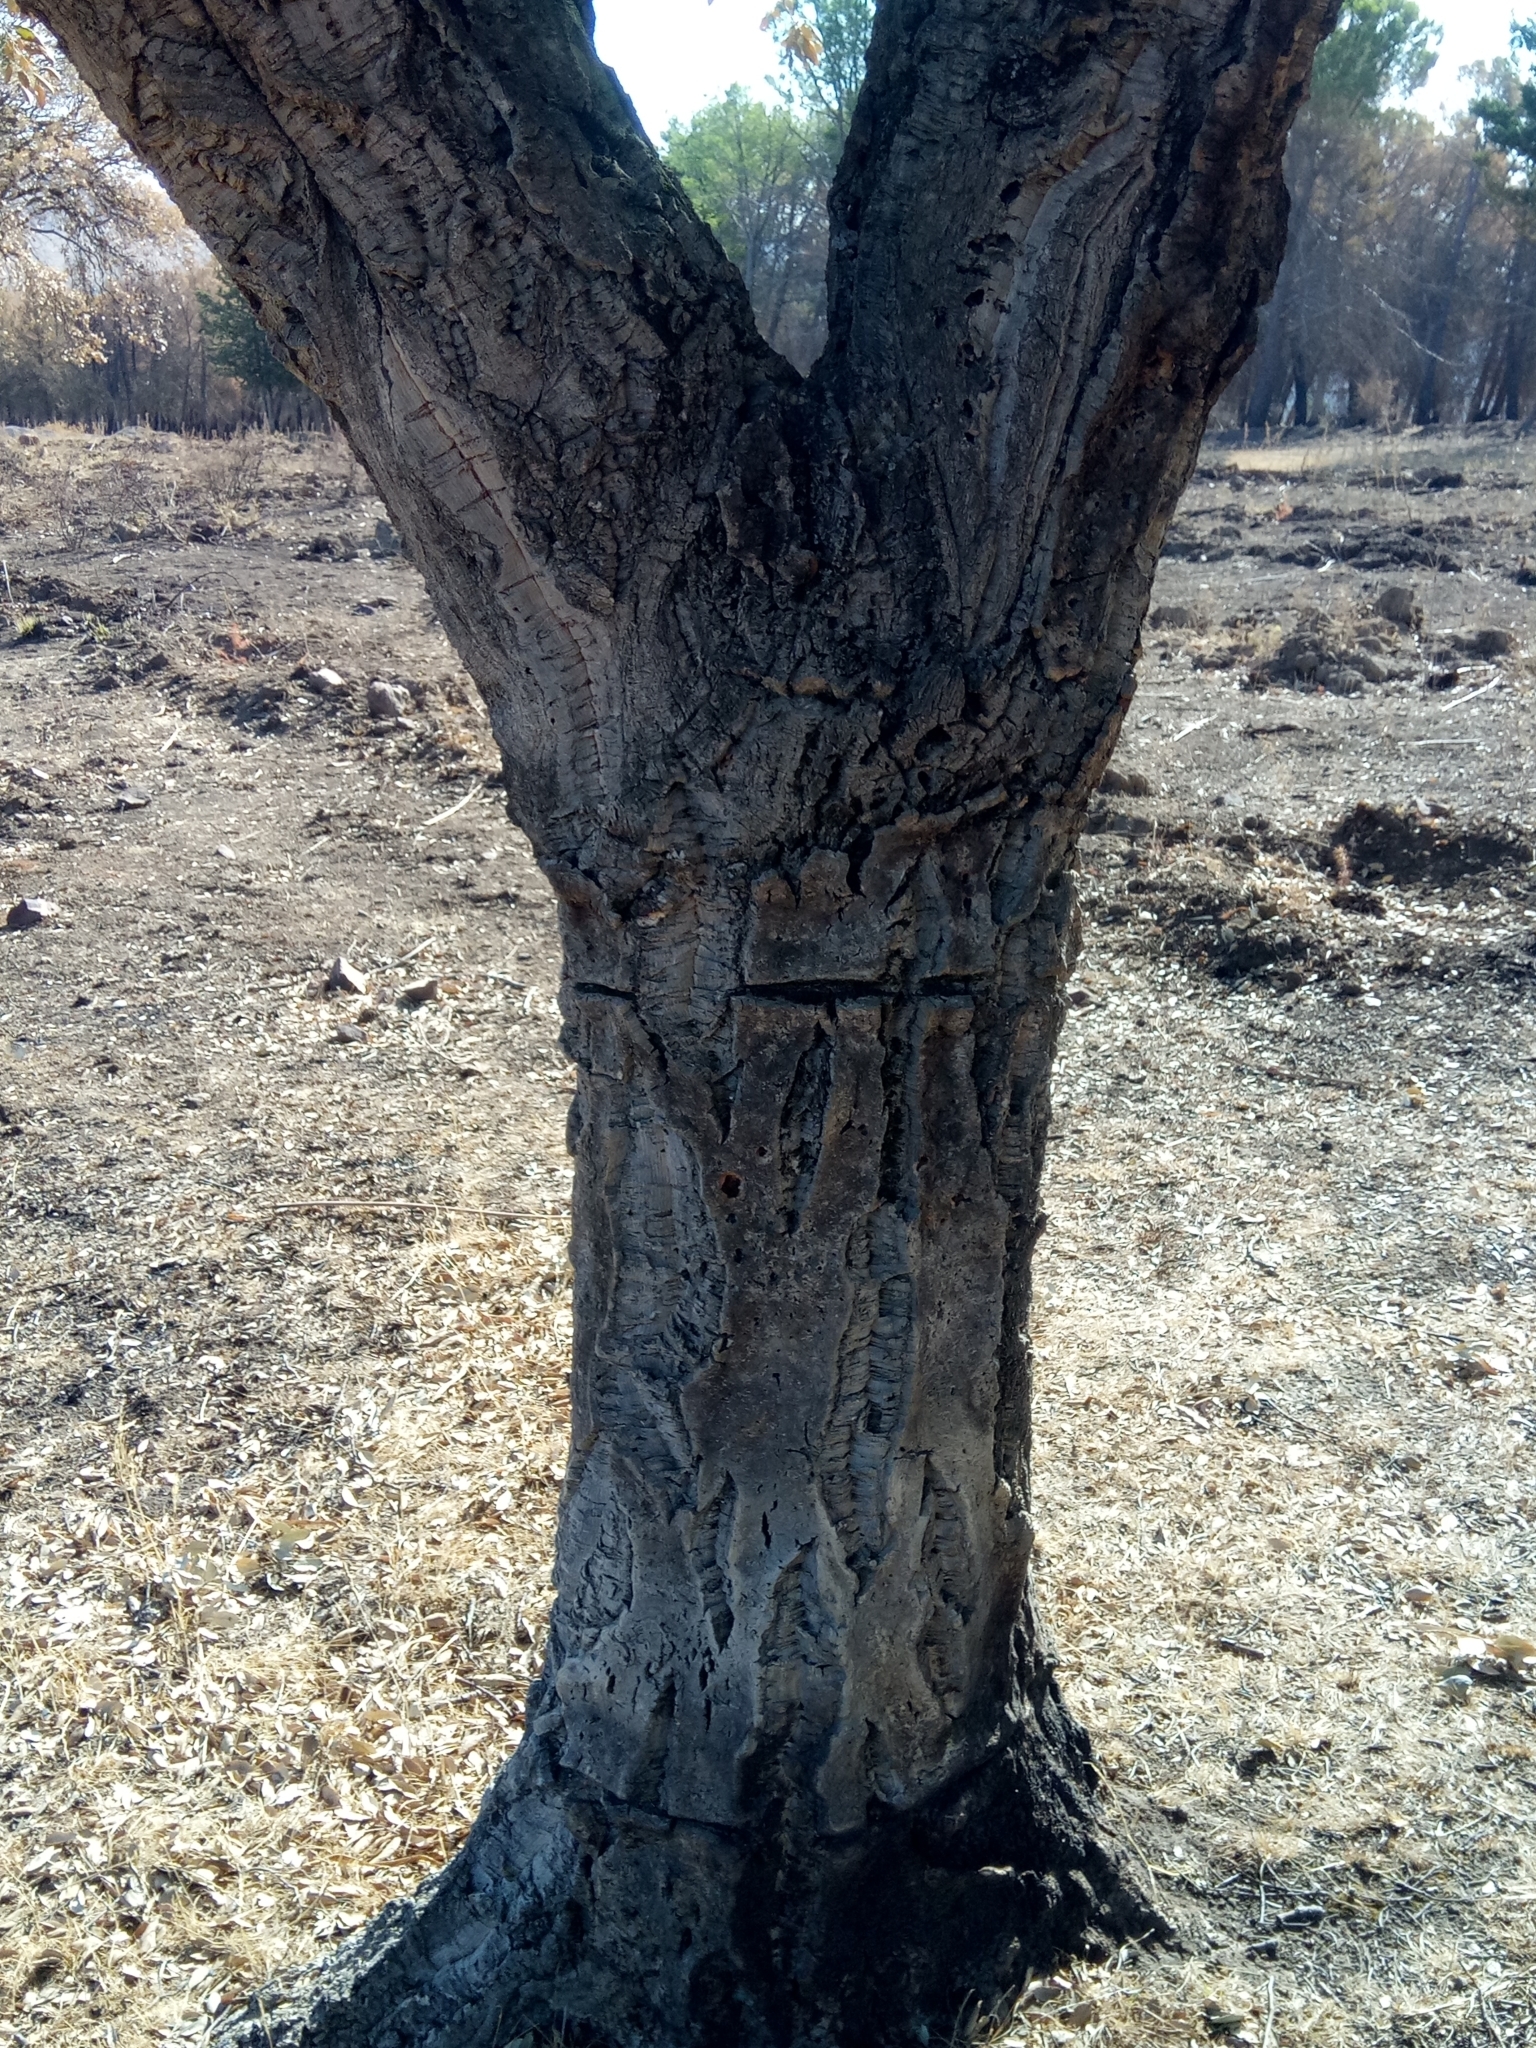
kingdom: Plantae
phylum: Tracheophyta
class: Magnoliopsida
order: Fagales
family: Fagaceae
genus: Quercus
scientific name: Quercus suber
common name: Cork oak
